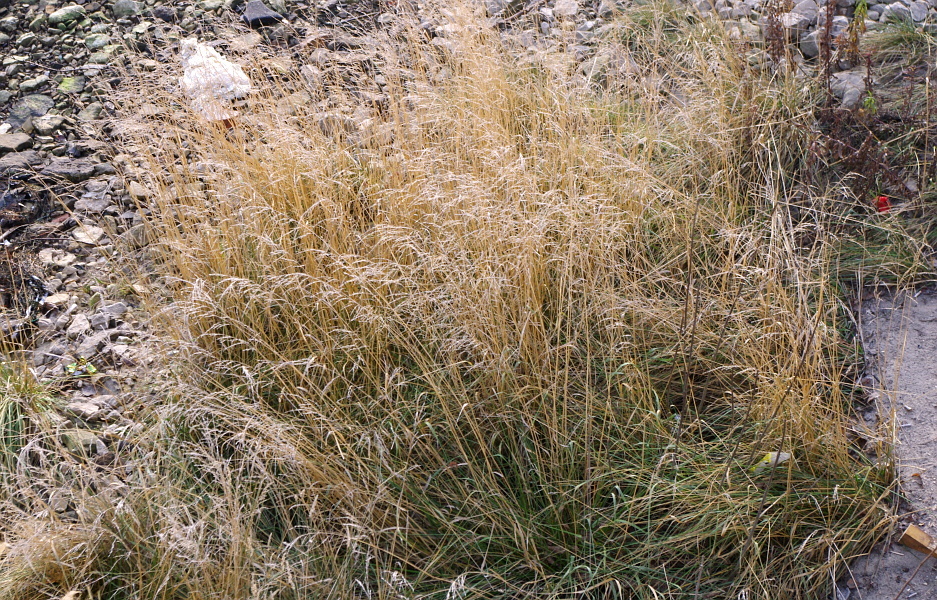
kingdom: Plantae
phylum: Tracheophyta
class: Liliopsida
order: Poales
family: Poaceae
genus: Deschampsia
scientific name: Deschampsia cespitosa
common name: Tufted hair-grass
